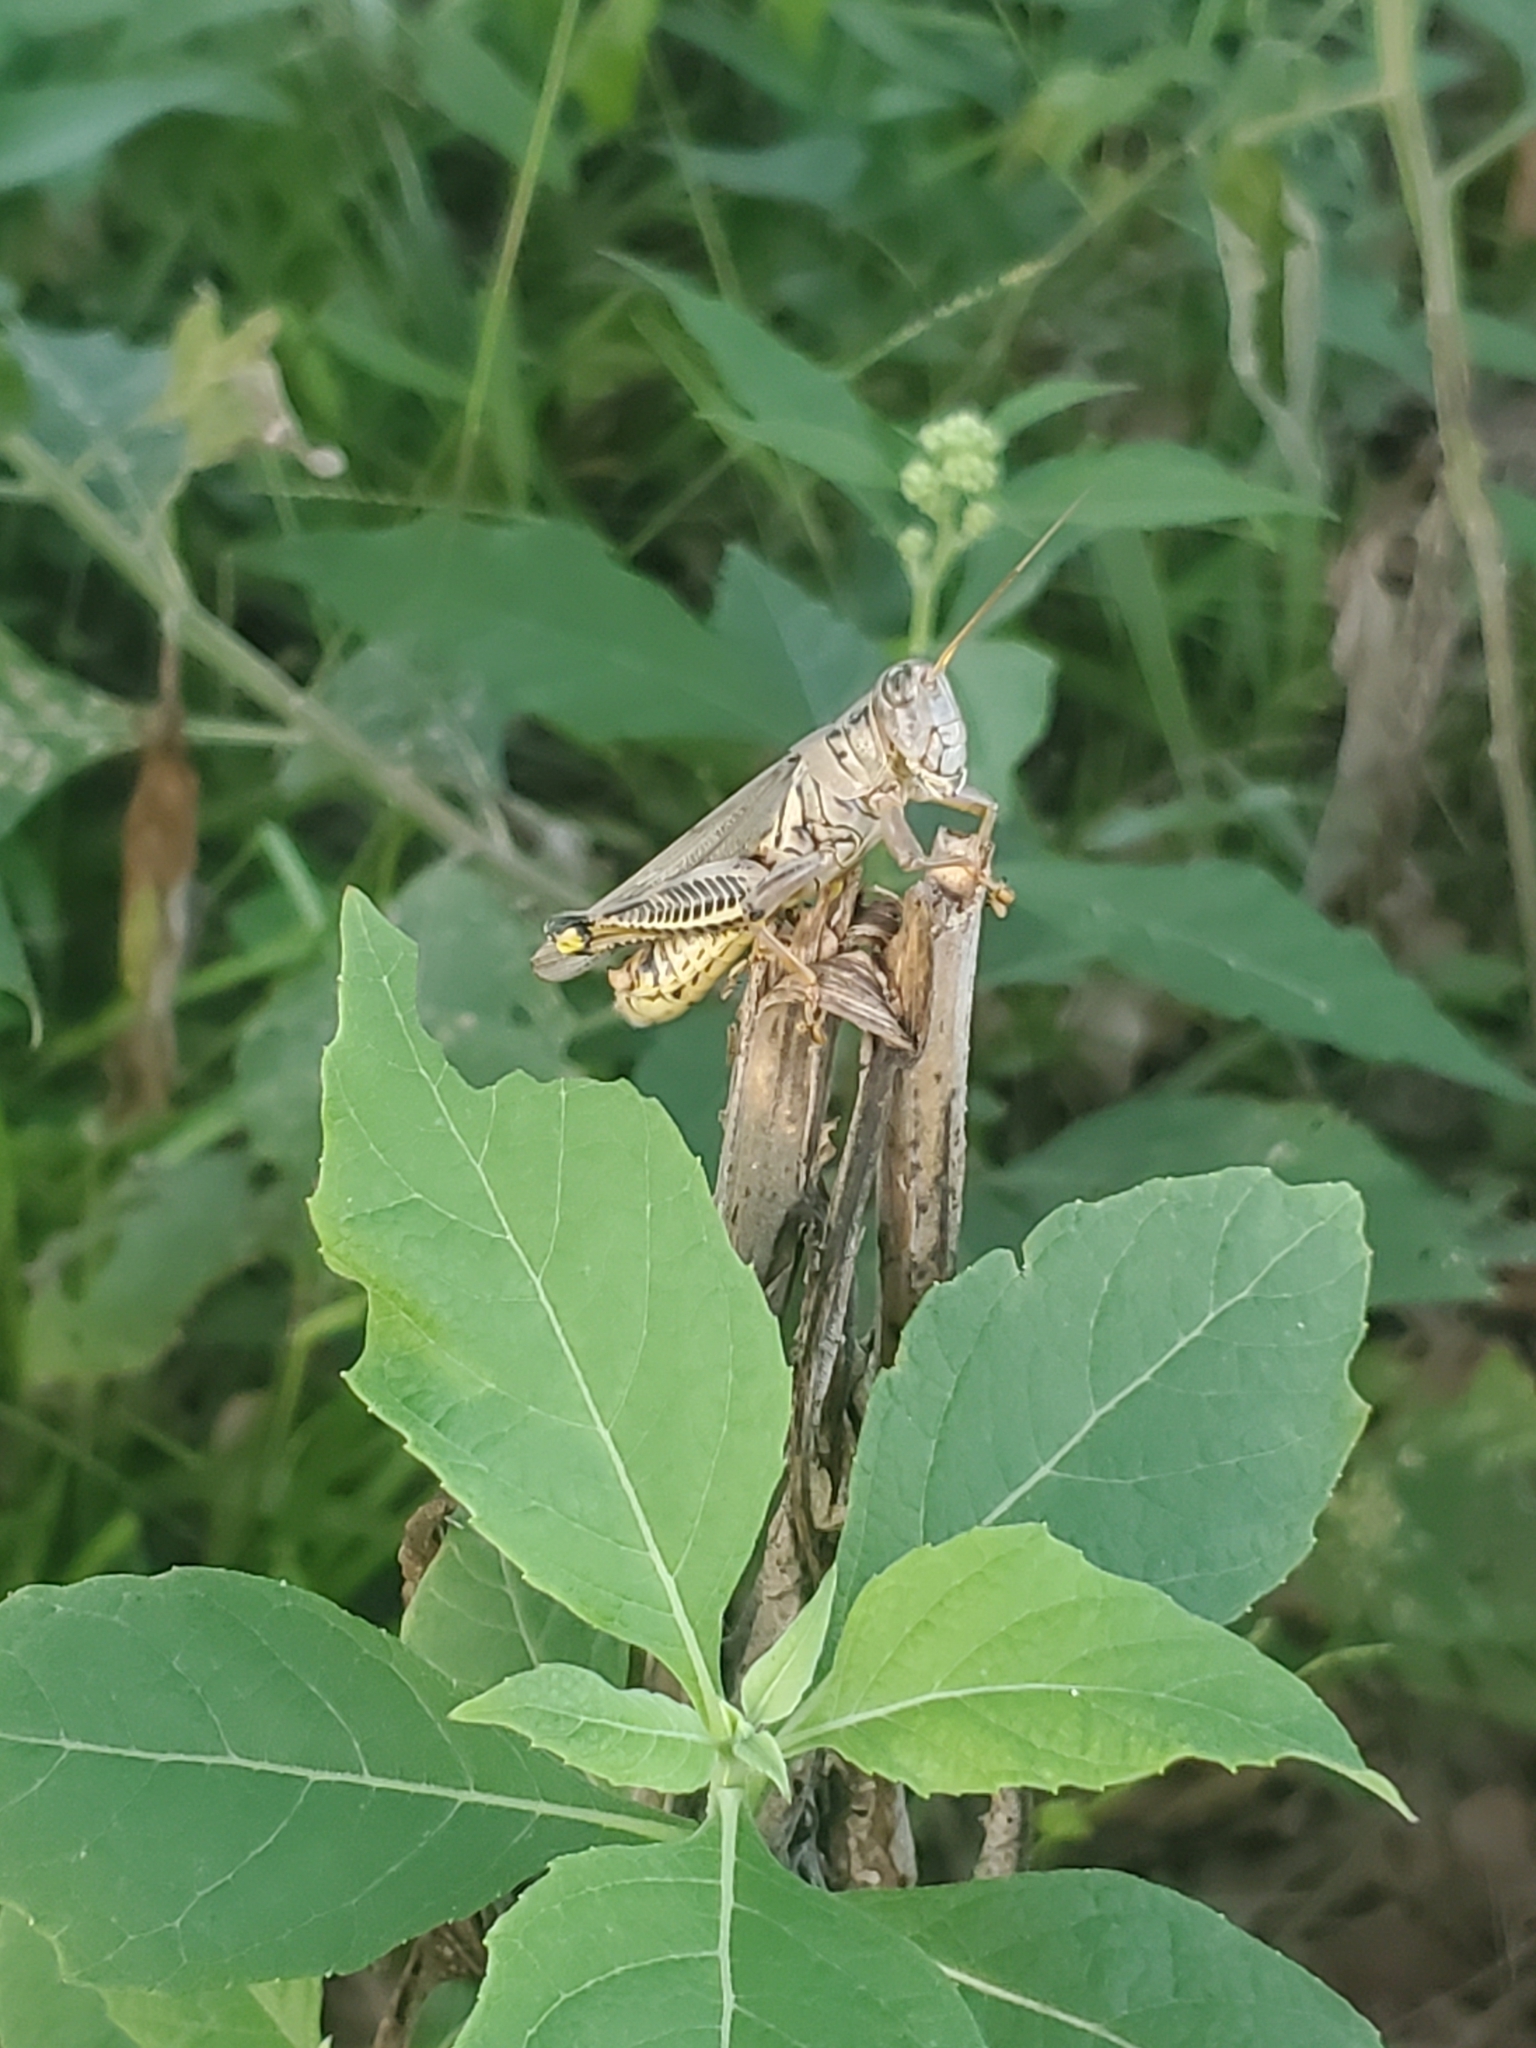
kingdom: Animalia
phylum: Arthropoda
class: Insecta
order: Orthoptera
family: Acrididae
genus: Melanoplus
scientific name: Melanoplus differentialis
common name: Differential grasshopper
